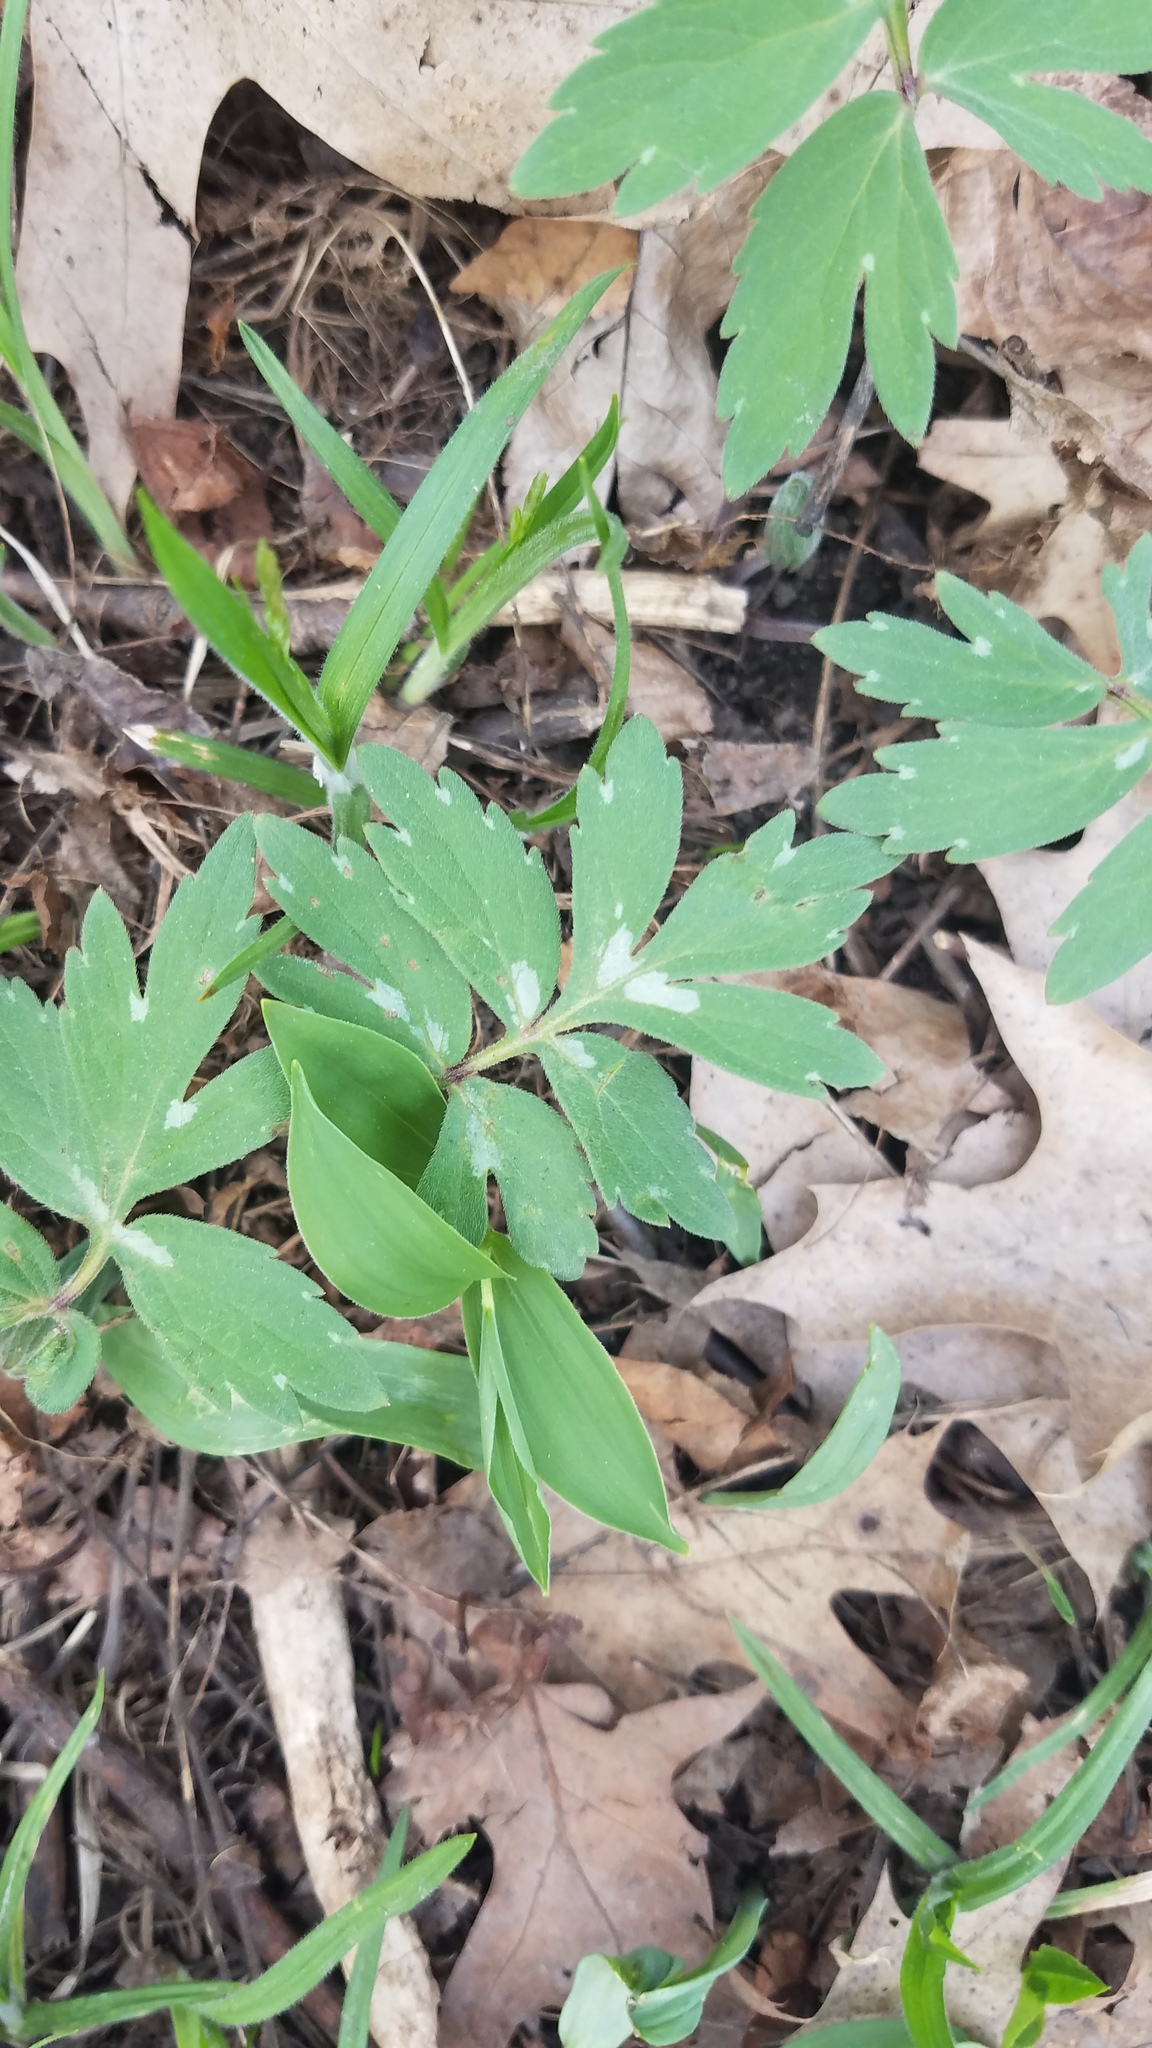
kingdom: Plantae
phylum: Tracheophyta
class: Magnoliopsida
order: Boraginales
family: Hydrophyllaceae
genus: Hydrophyllum
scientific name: Hydrophyllum virginianum
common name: Virginia waterleaf
